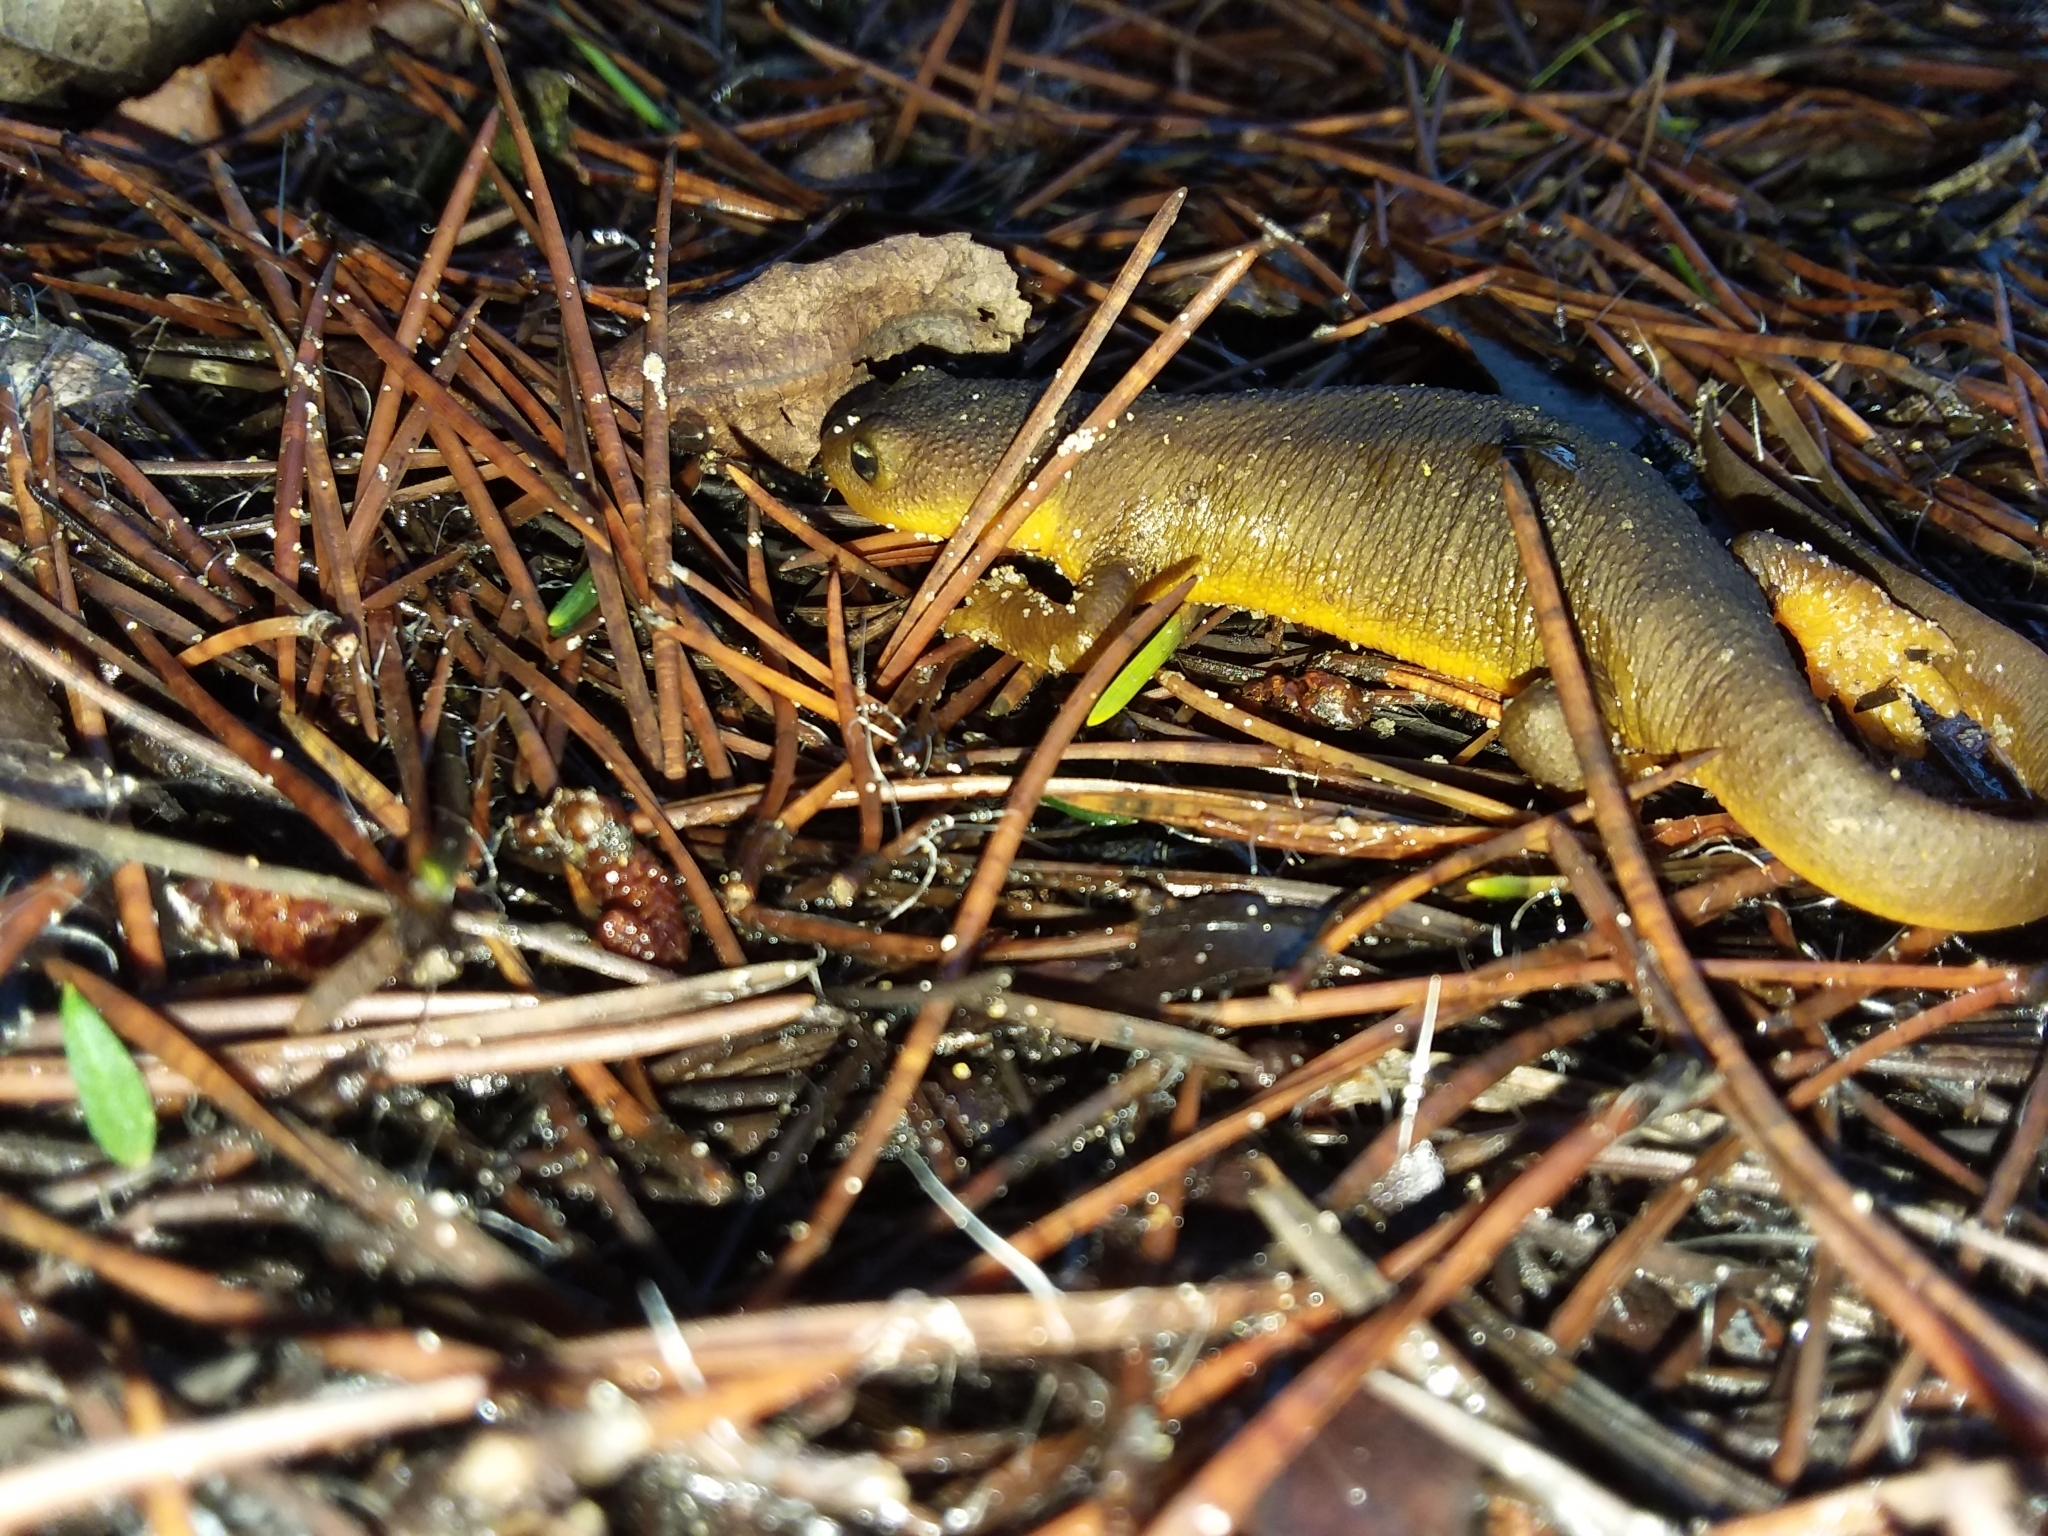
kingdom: Animalia
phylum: Chordata
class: Amphibia
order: Caudata
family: Salamandridae
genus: Taricha
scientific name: Taricha granulosa
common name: Roughskin newt
